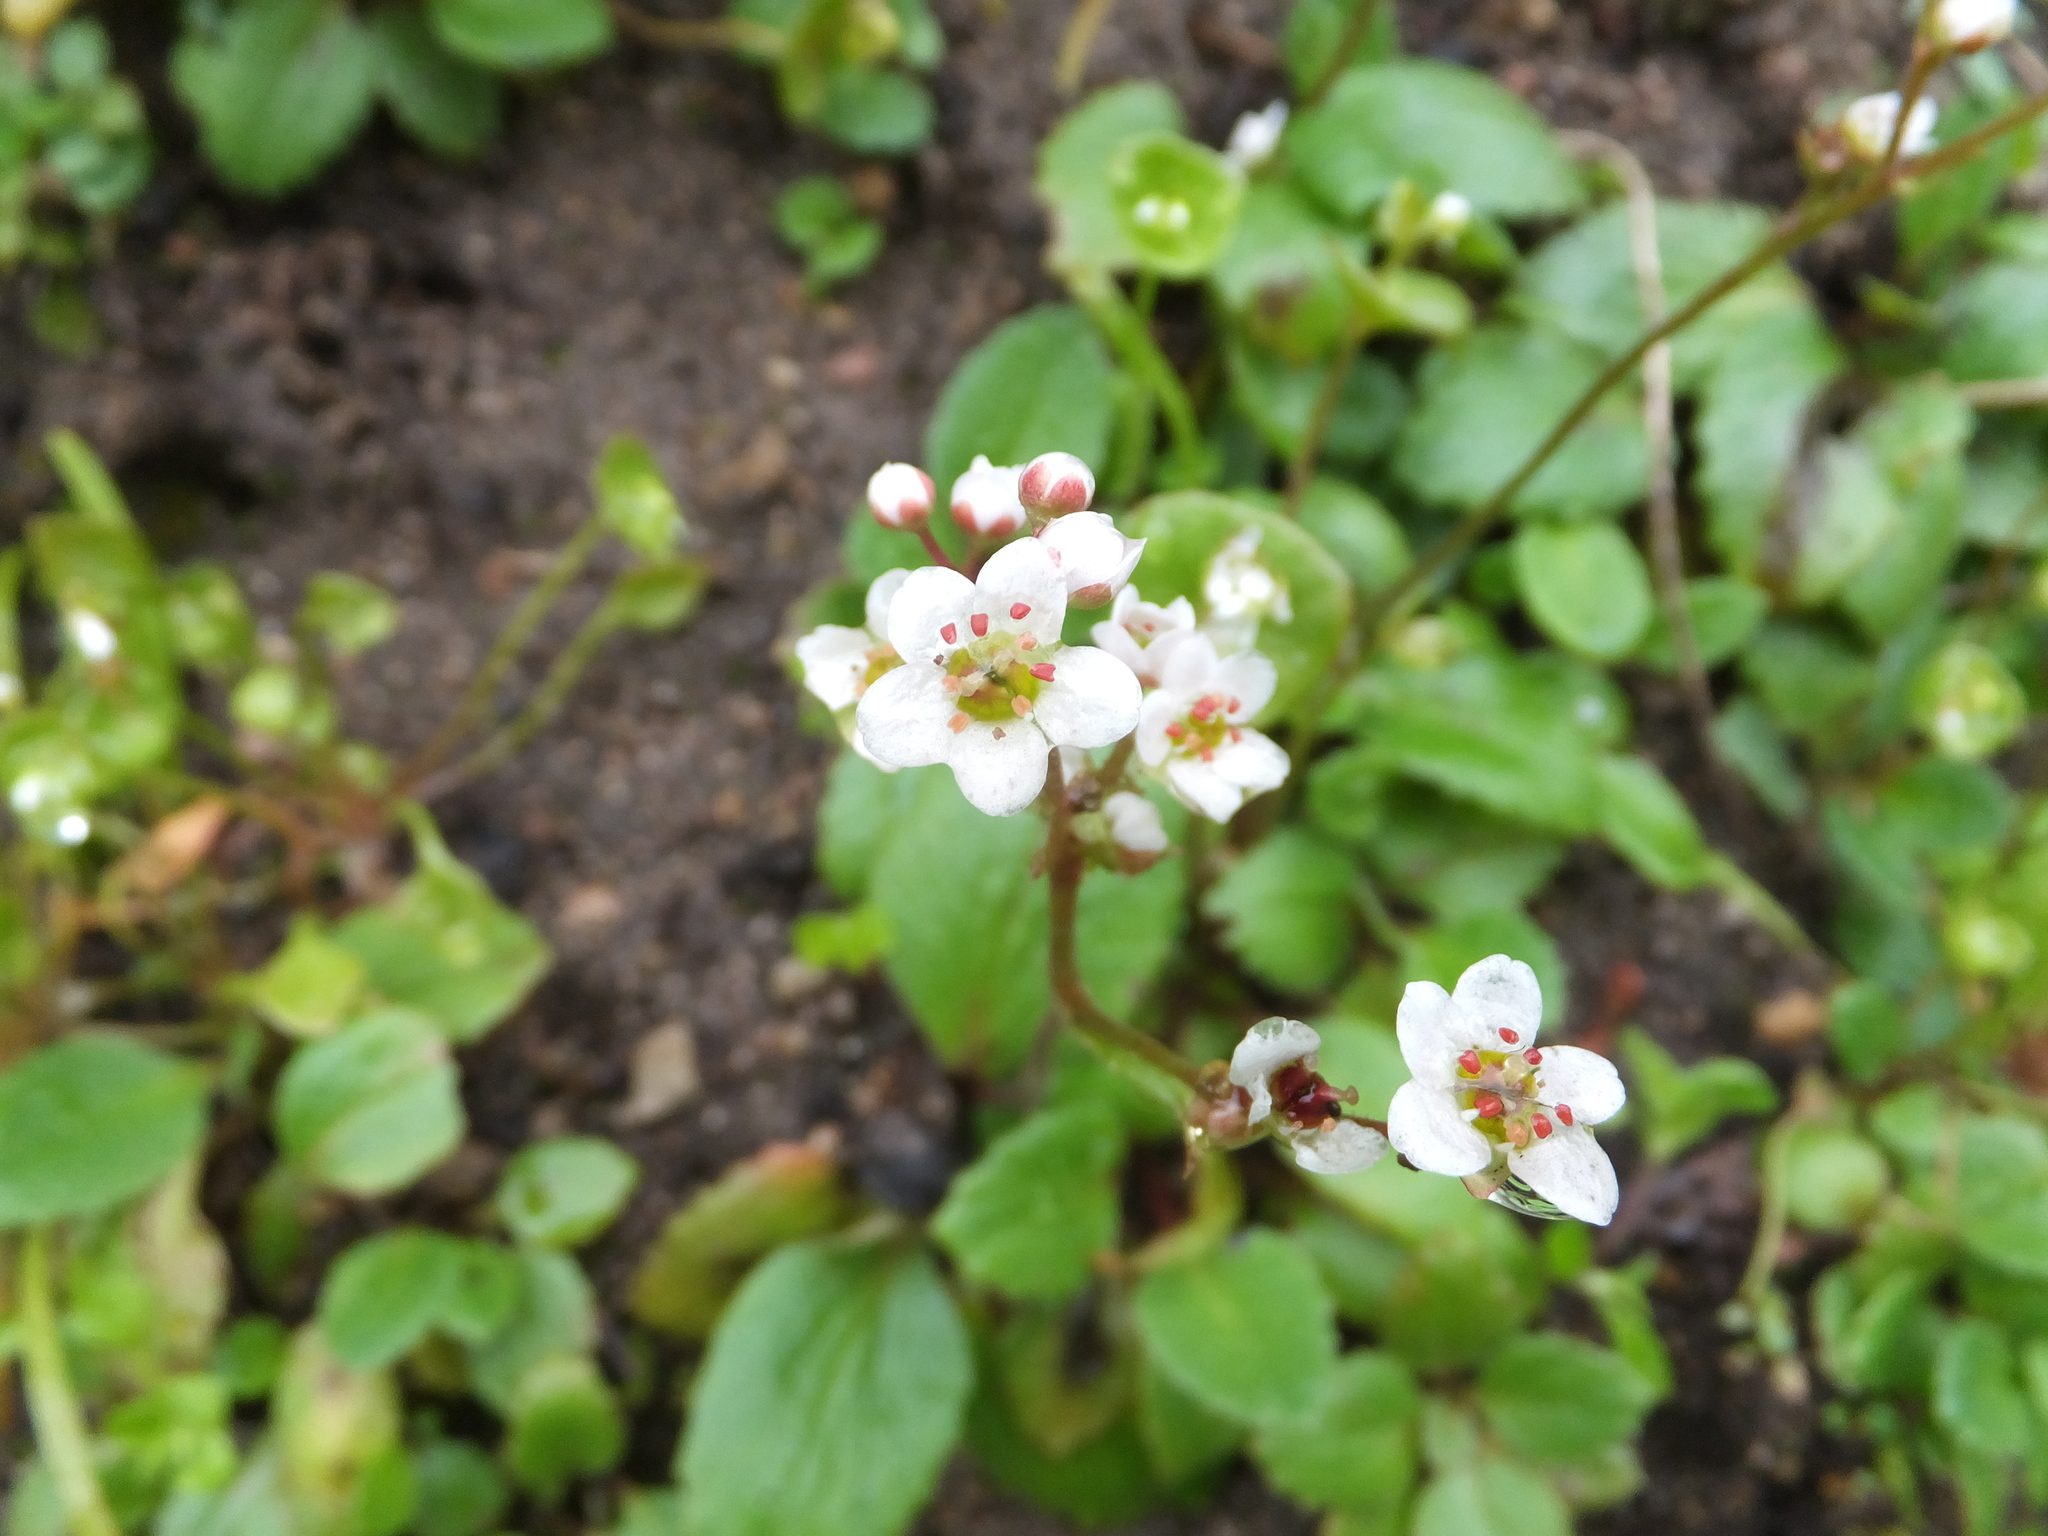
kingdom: Plantae
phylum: Tracheophyta
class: Magnoliopsida
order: Saxifragales
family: Saxifragaceae
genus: Micranthes
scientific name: Micranthes californica
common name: California saxifrage
